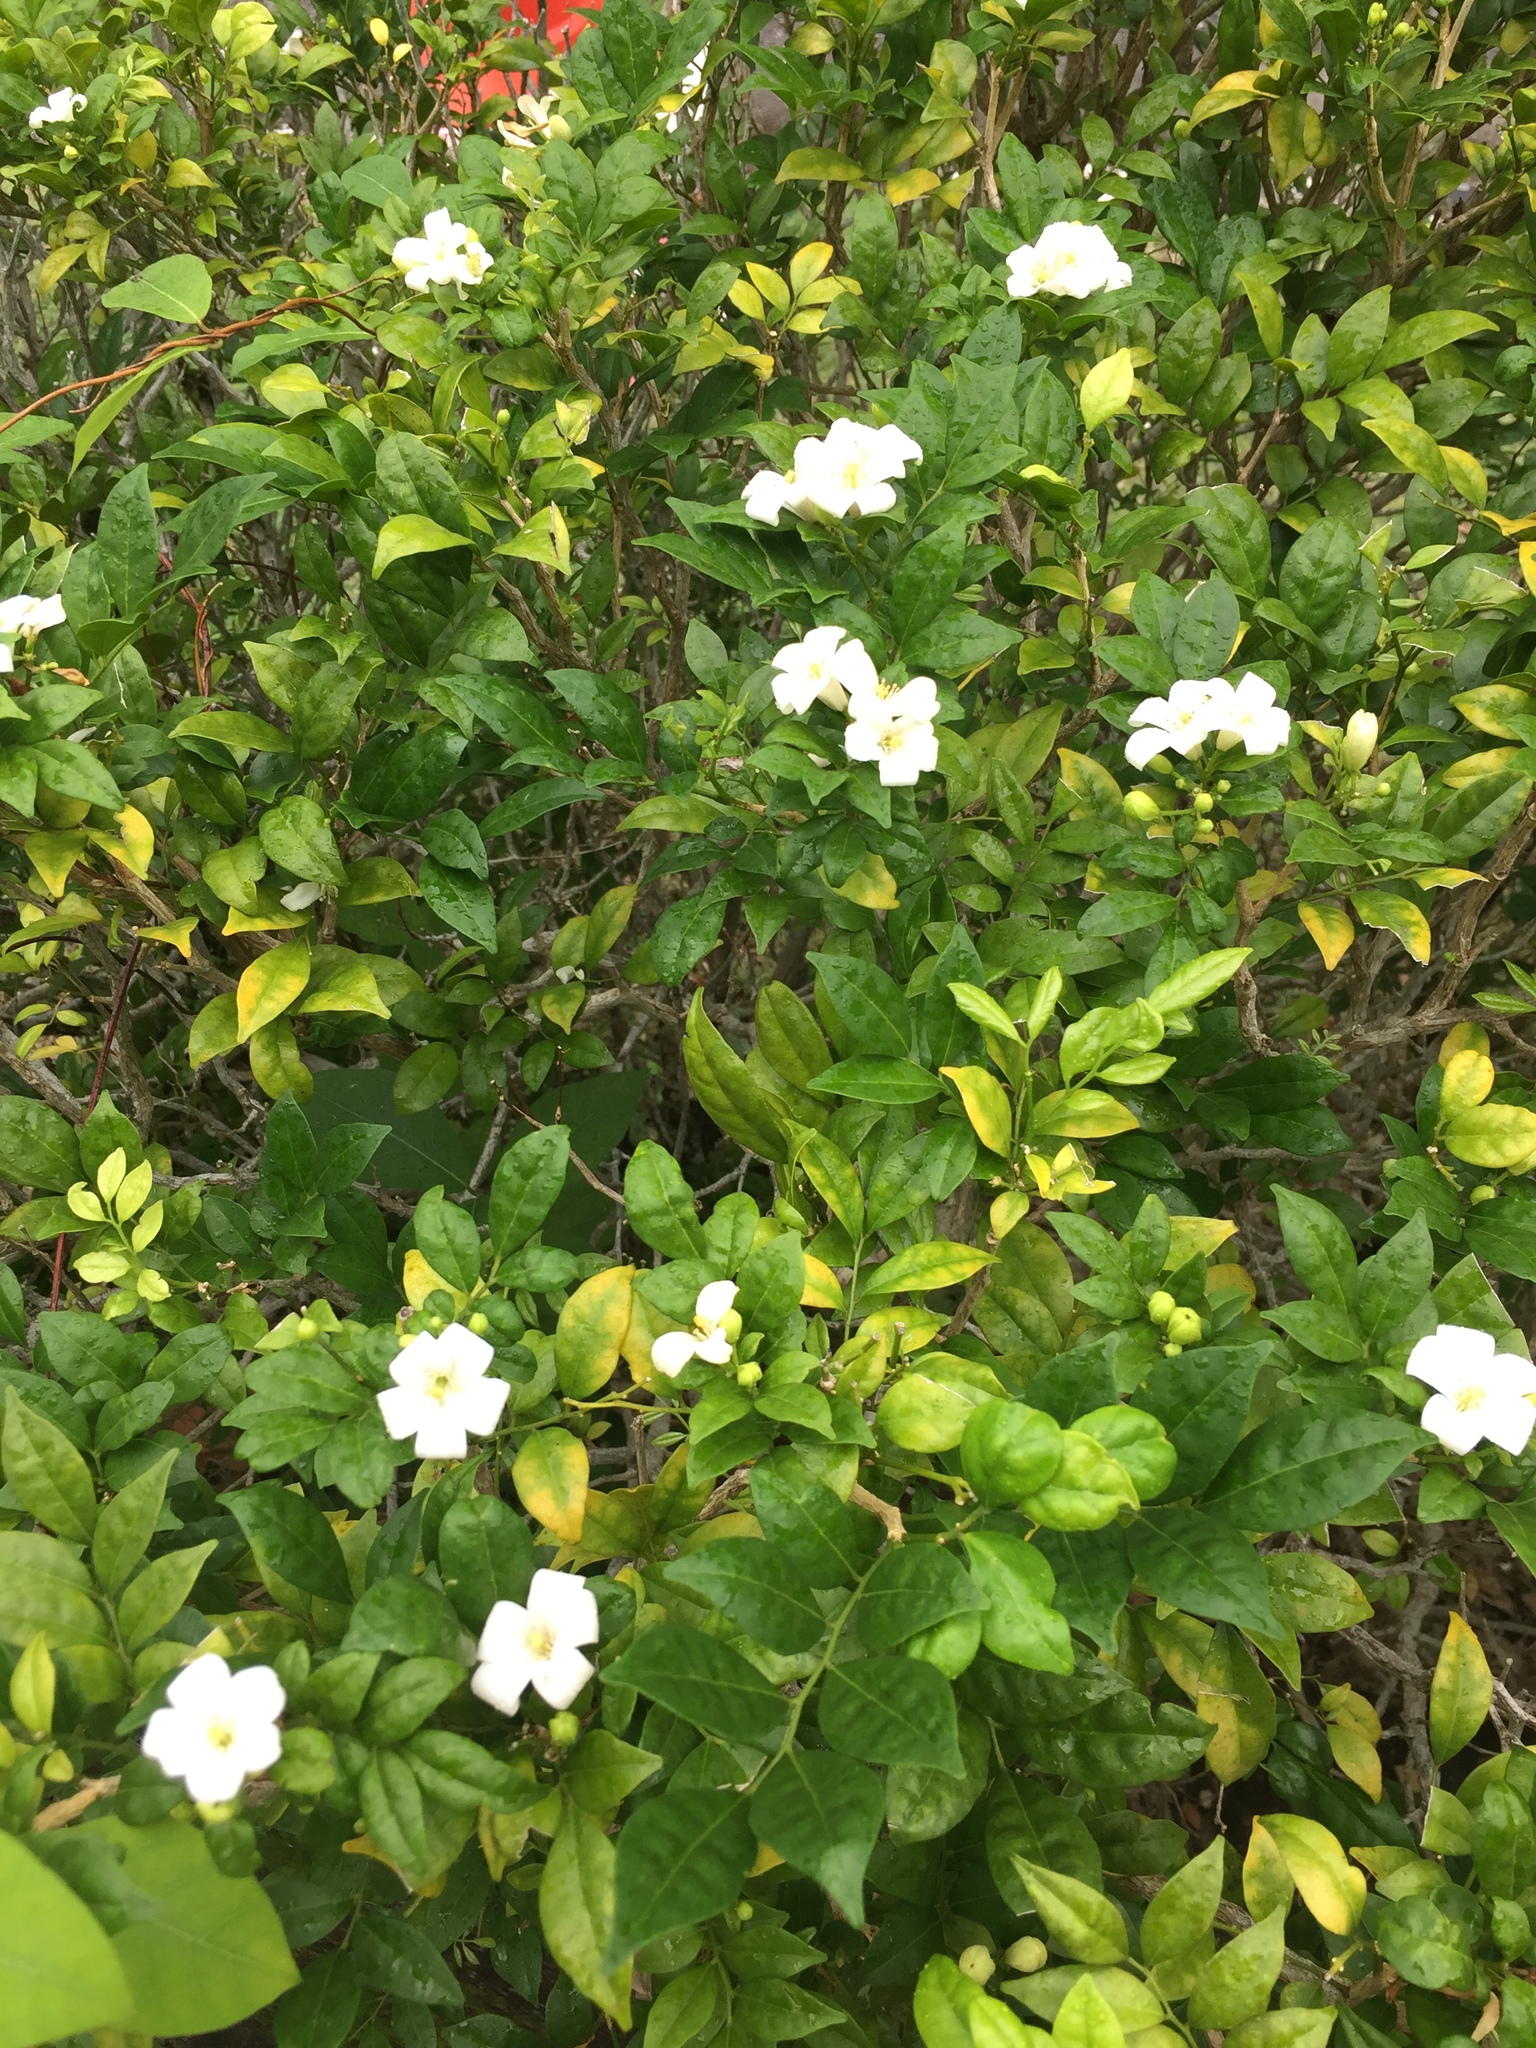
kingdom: Plantae
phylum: Tracheophyta
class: Magnoliopsida
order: Sapindales
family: Rutaceae
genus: Murraya
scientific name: Murraya paniculata
